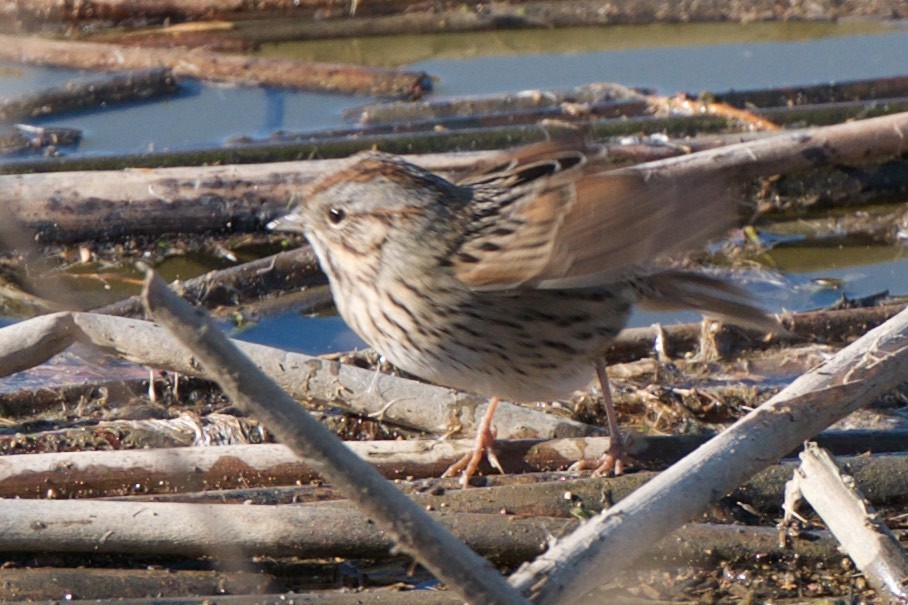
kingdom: Animalia
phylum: Chordata
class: Aves
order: Passeriformes
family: Passerellidae
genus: Melospiza
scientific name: Melospiza lincolnii
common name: Lincoln's sparrow
